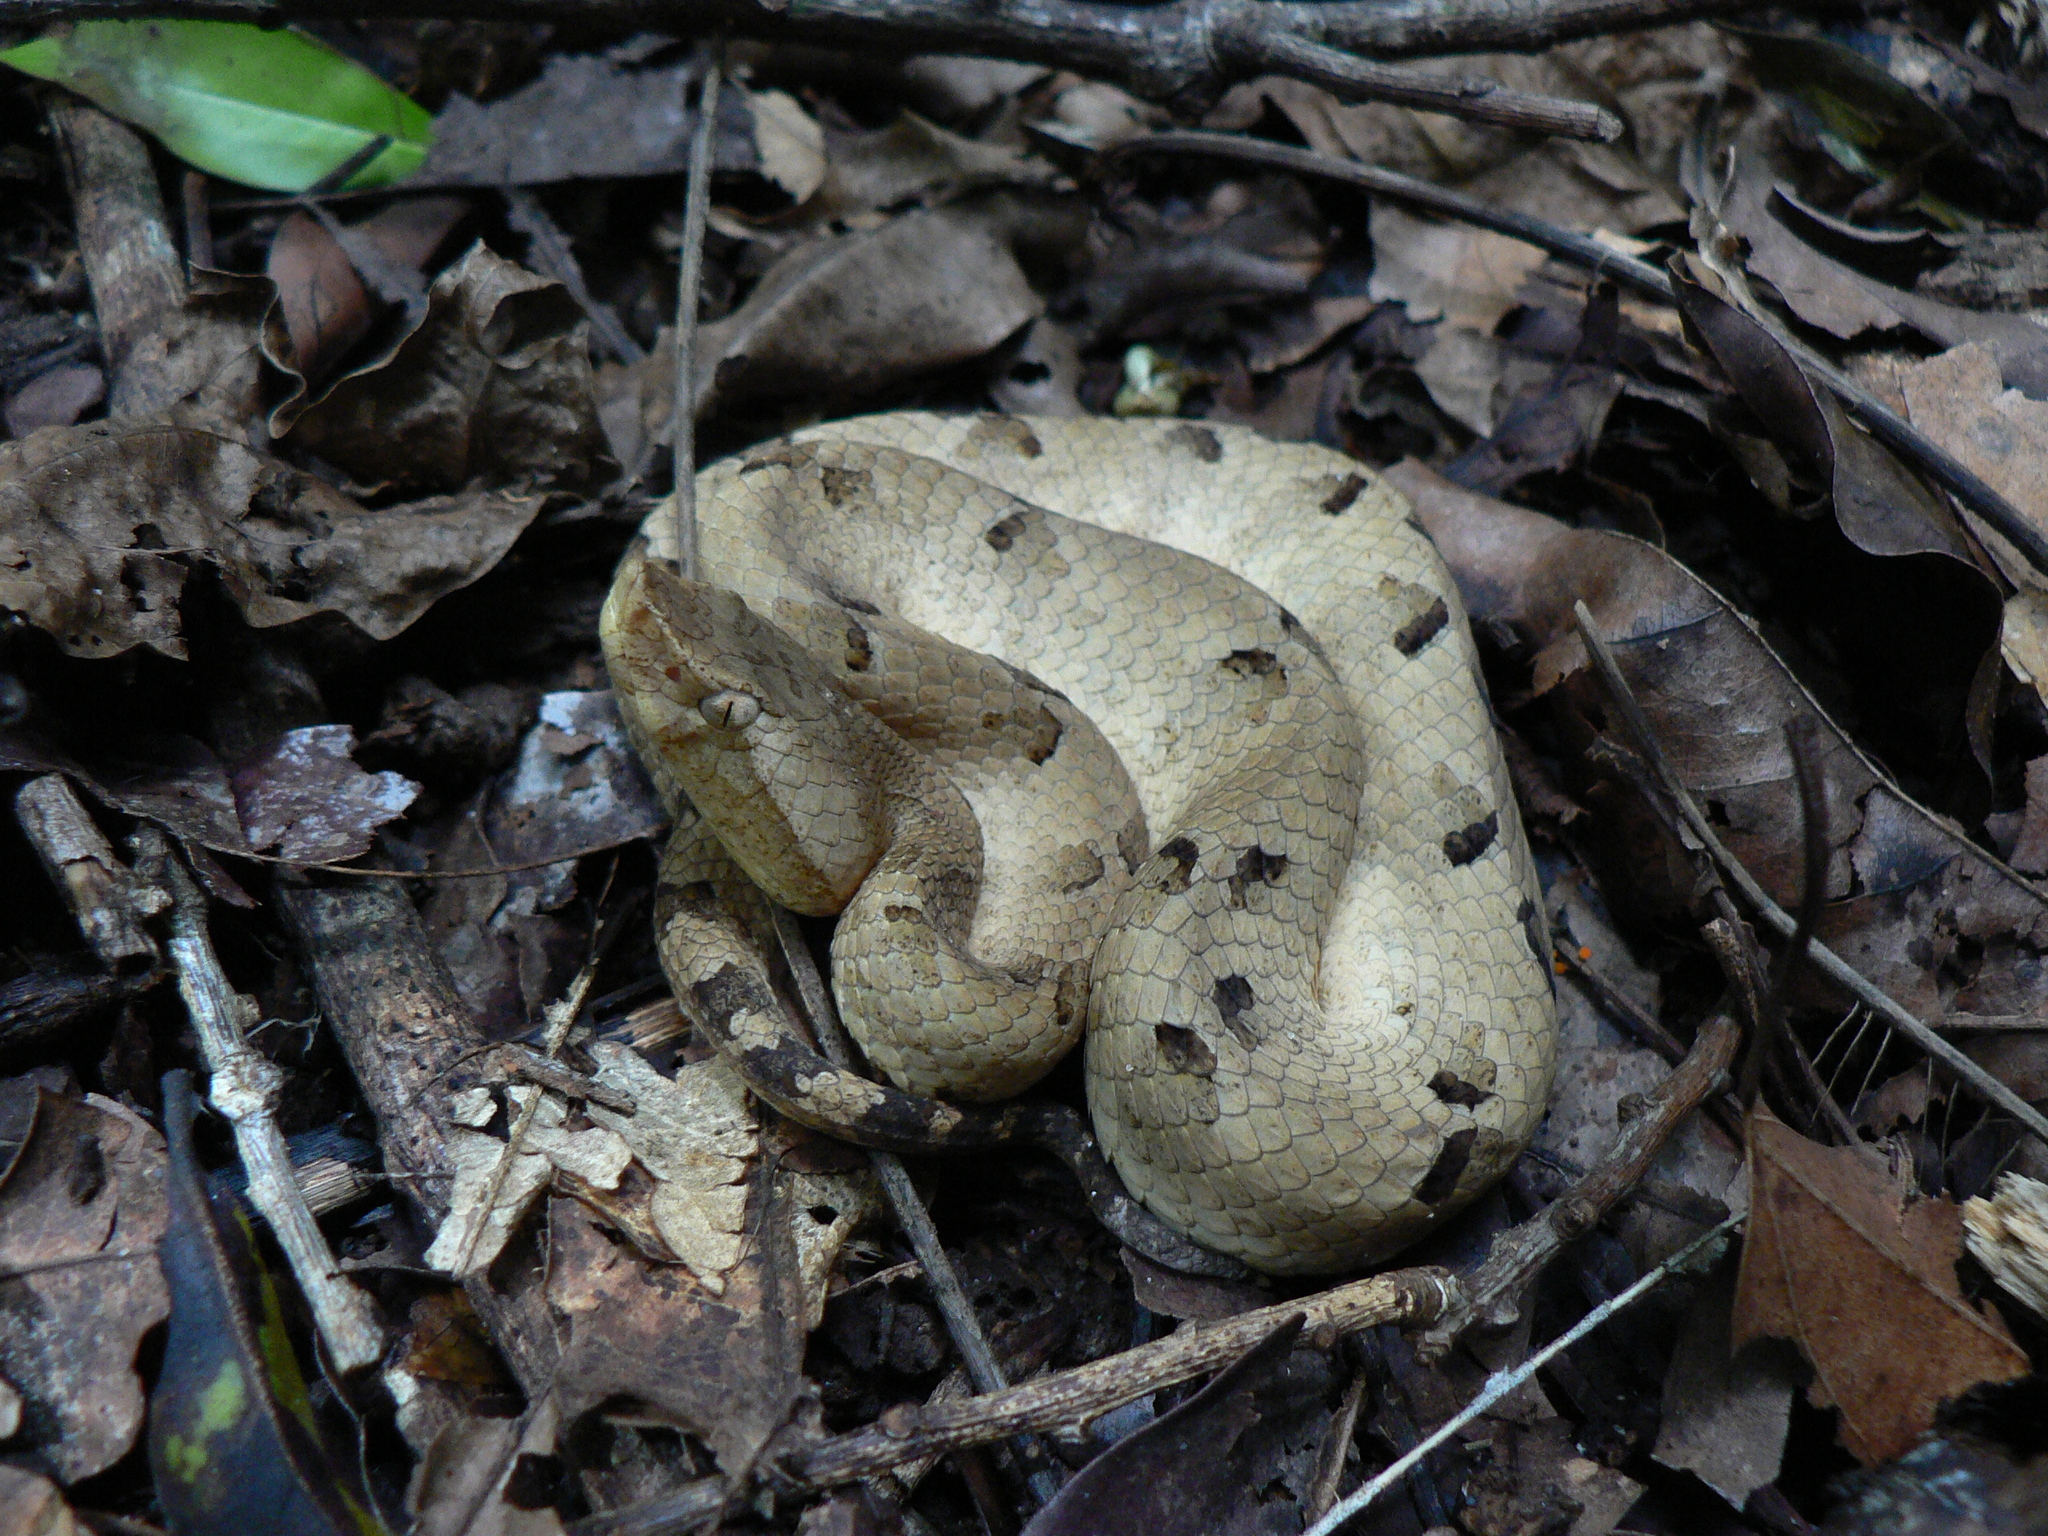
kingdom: Animalia
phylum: Chordata
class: Squamata
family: Viperidae
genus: Hypnale
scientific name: Hypnale hypnale
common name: Hump-nosed moccasin
